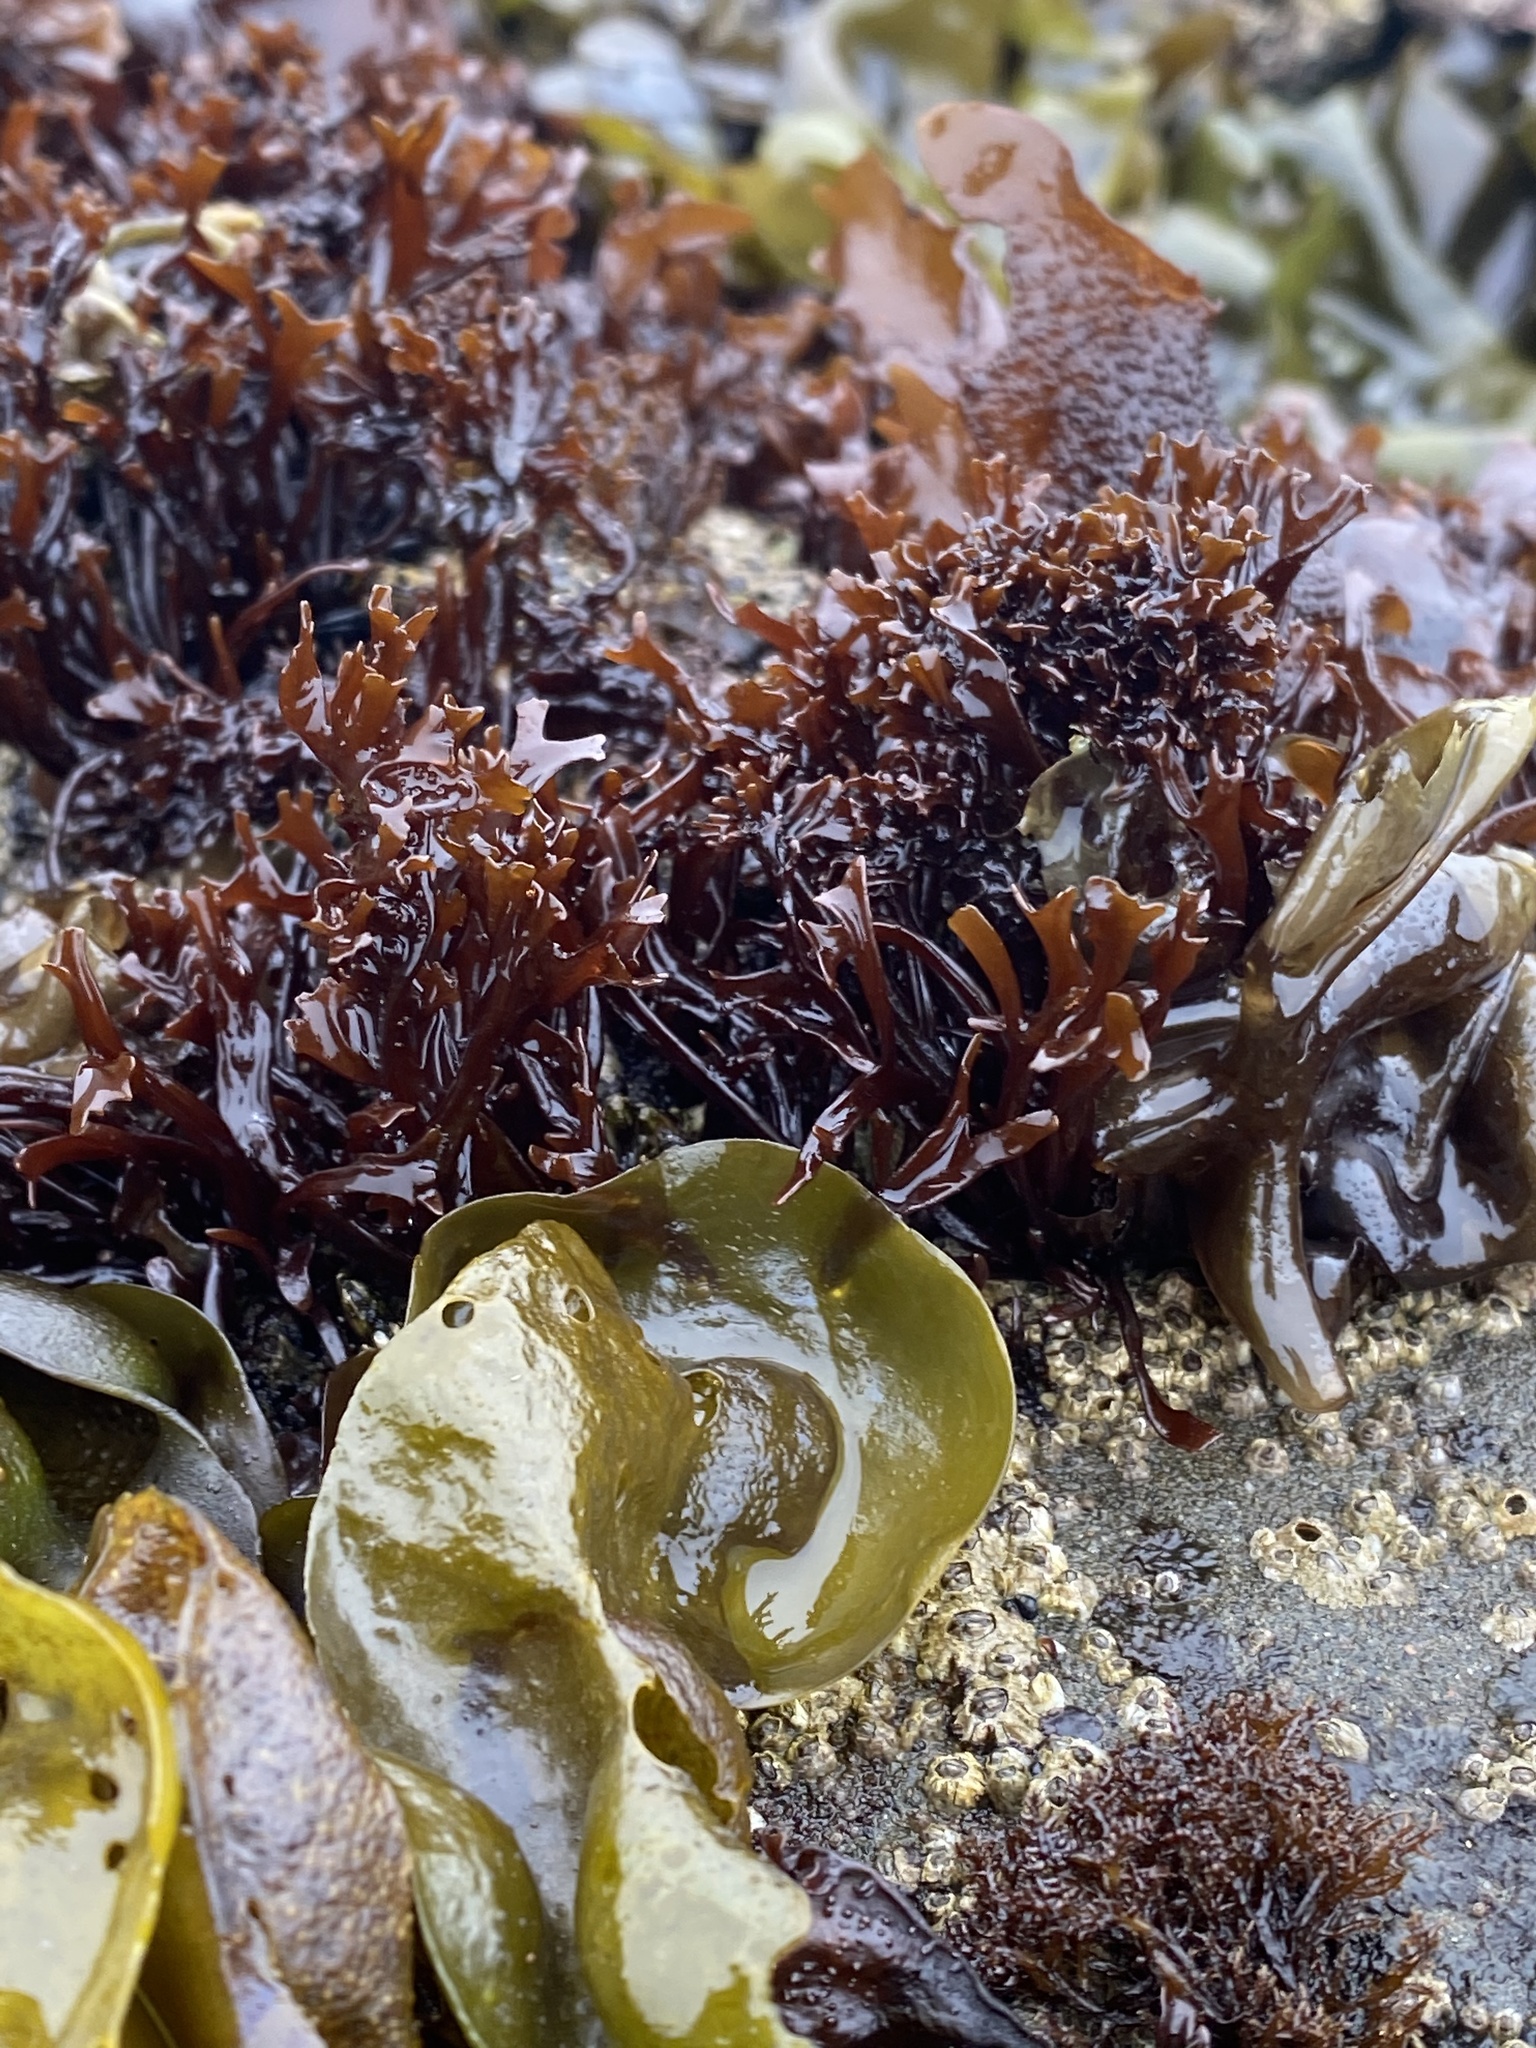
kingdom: Plantae
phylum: Rhodophyta
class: Florideophyceae
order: Gigartinales
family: Phyllophoraceae
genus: Mastocarpus
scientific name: Mastocarpus papillatus
